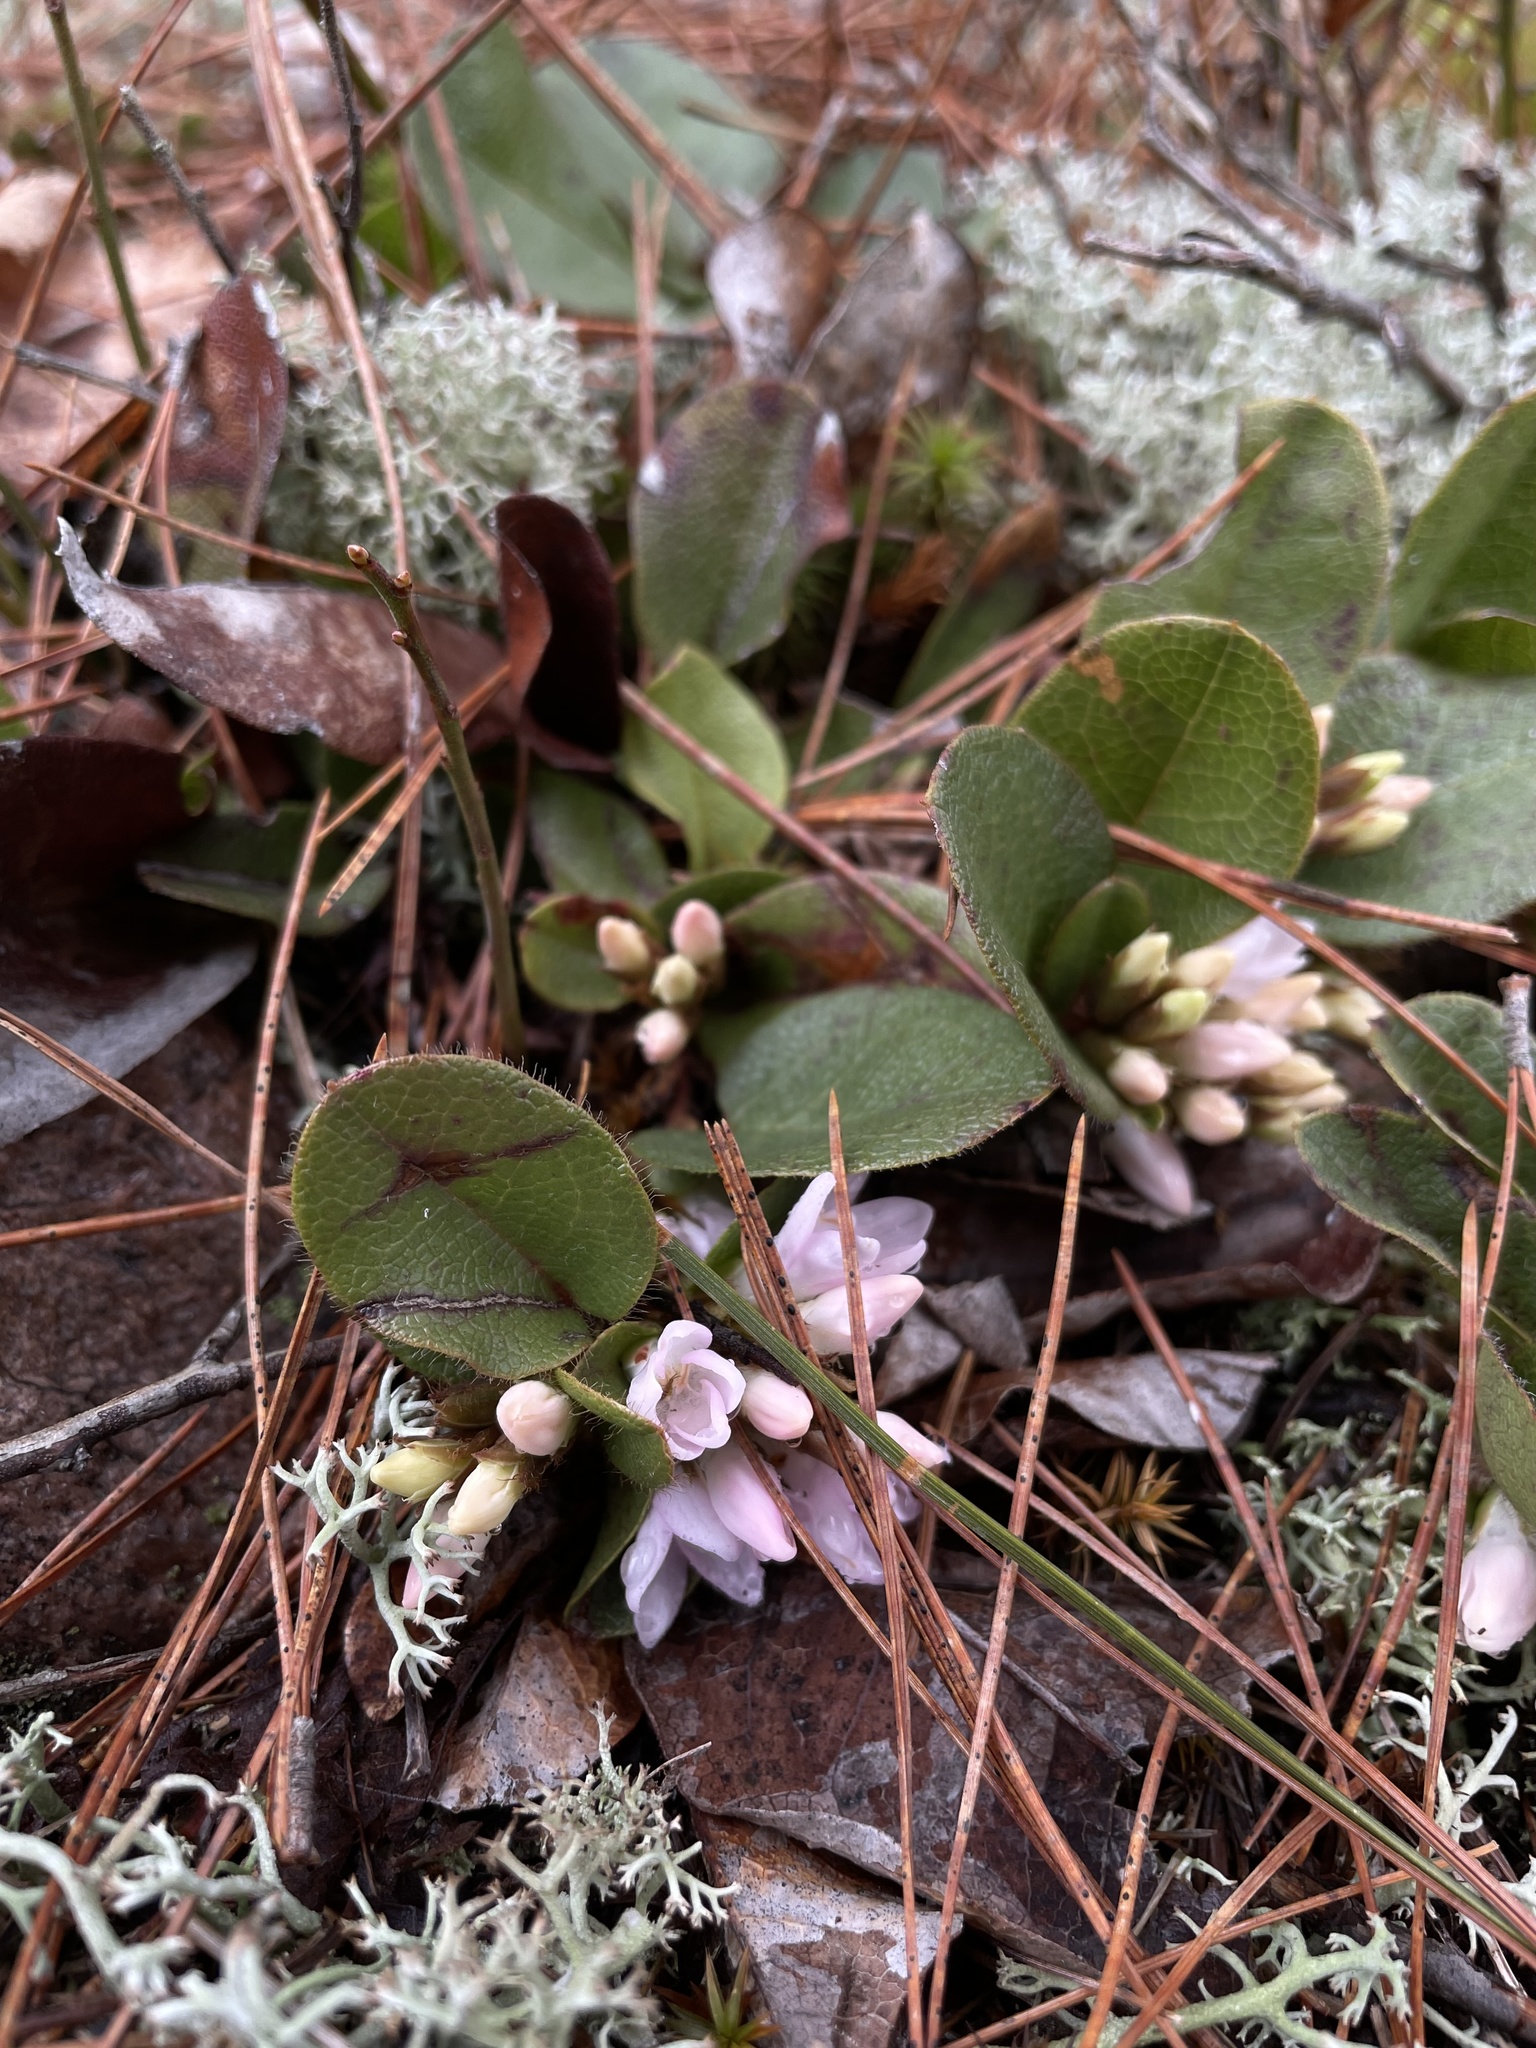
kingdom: Plantae
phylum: Tracheophyta
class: Magnoliopsida
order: Ericales
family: Ericaceae
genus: Epigaea
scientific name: Epigaea repens
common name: Gravelroot
